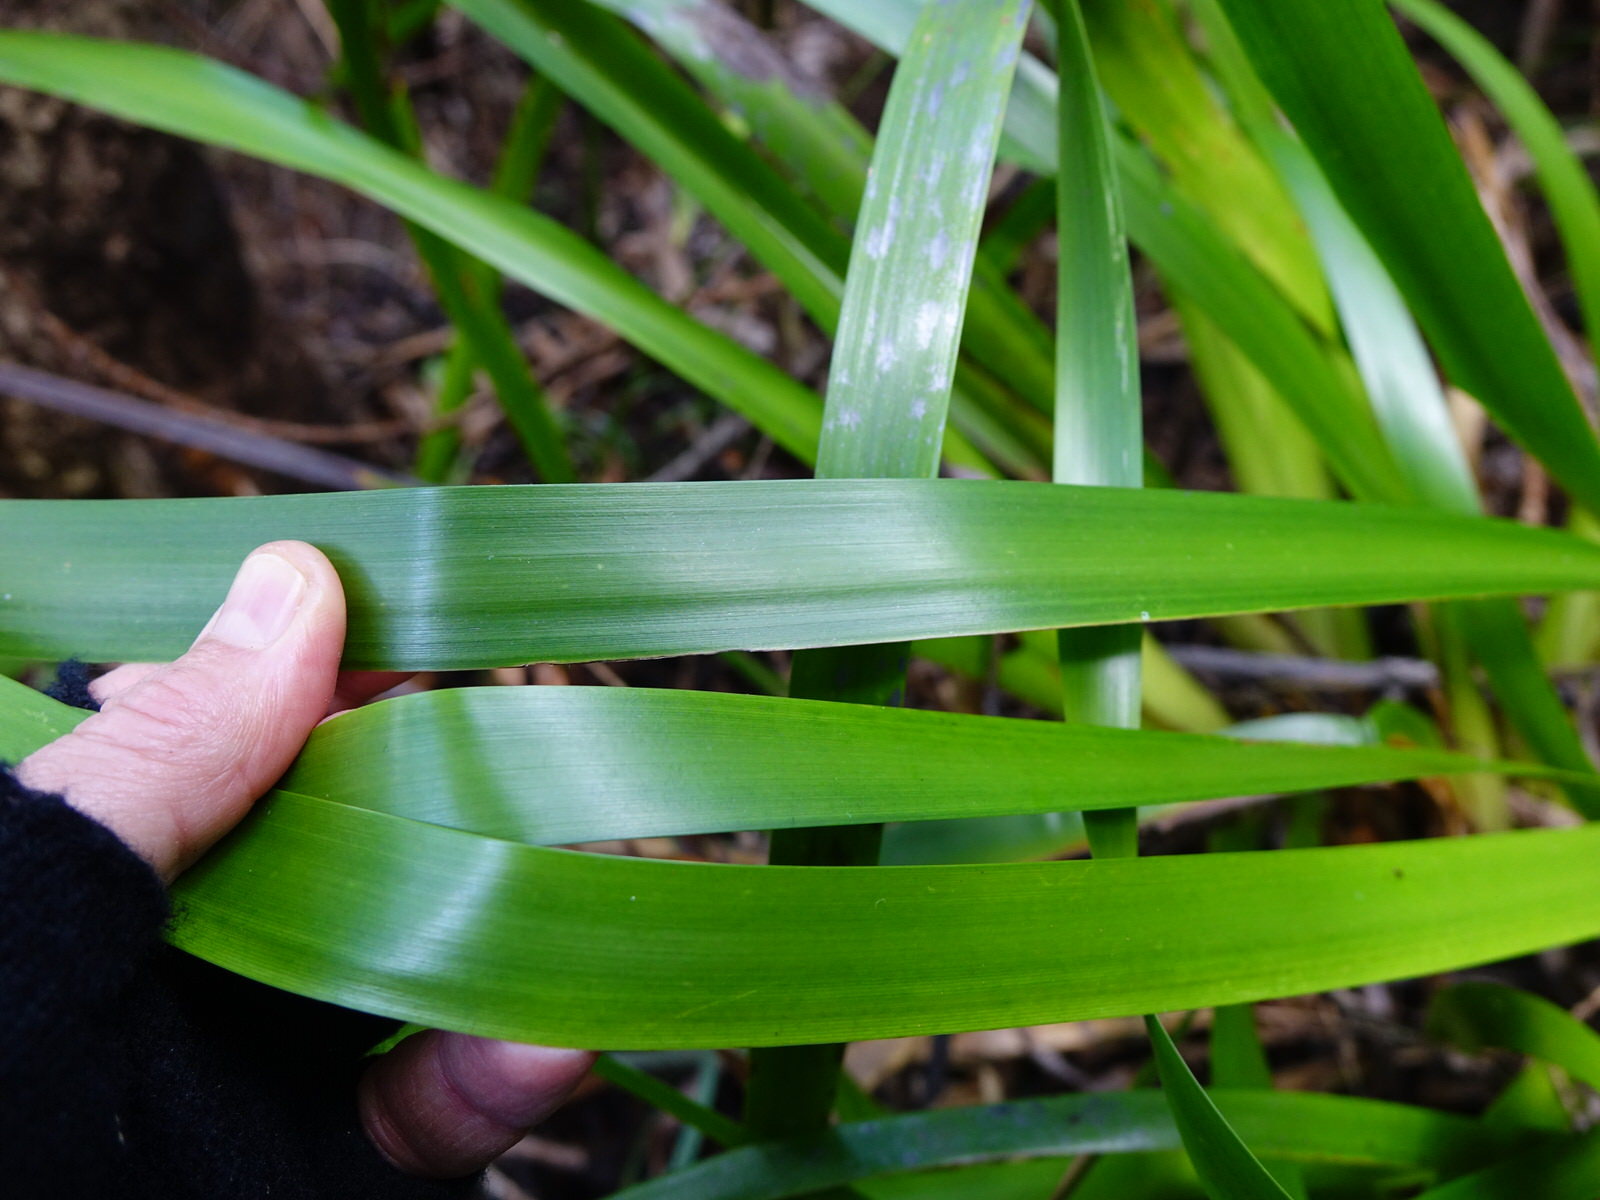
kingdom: Plantae
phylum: Tracheophyta
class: Liliopsida
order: Poales
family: Cyperaceae
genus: Machaerina
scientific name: Machaerina sinclairii
